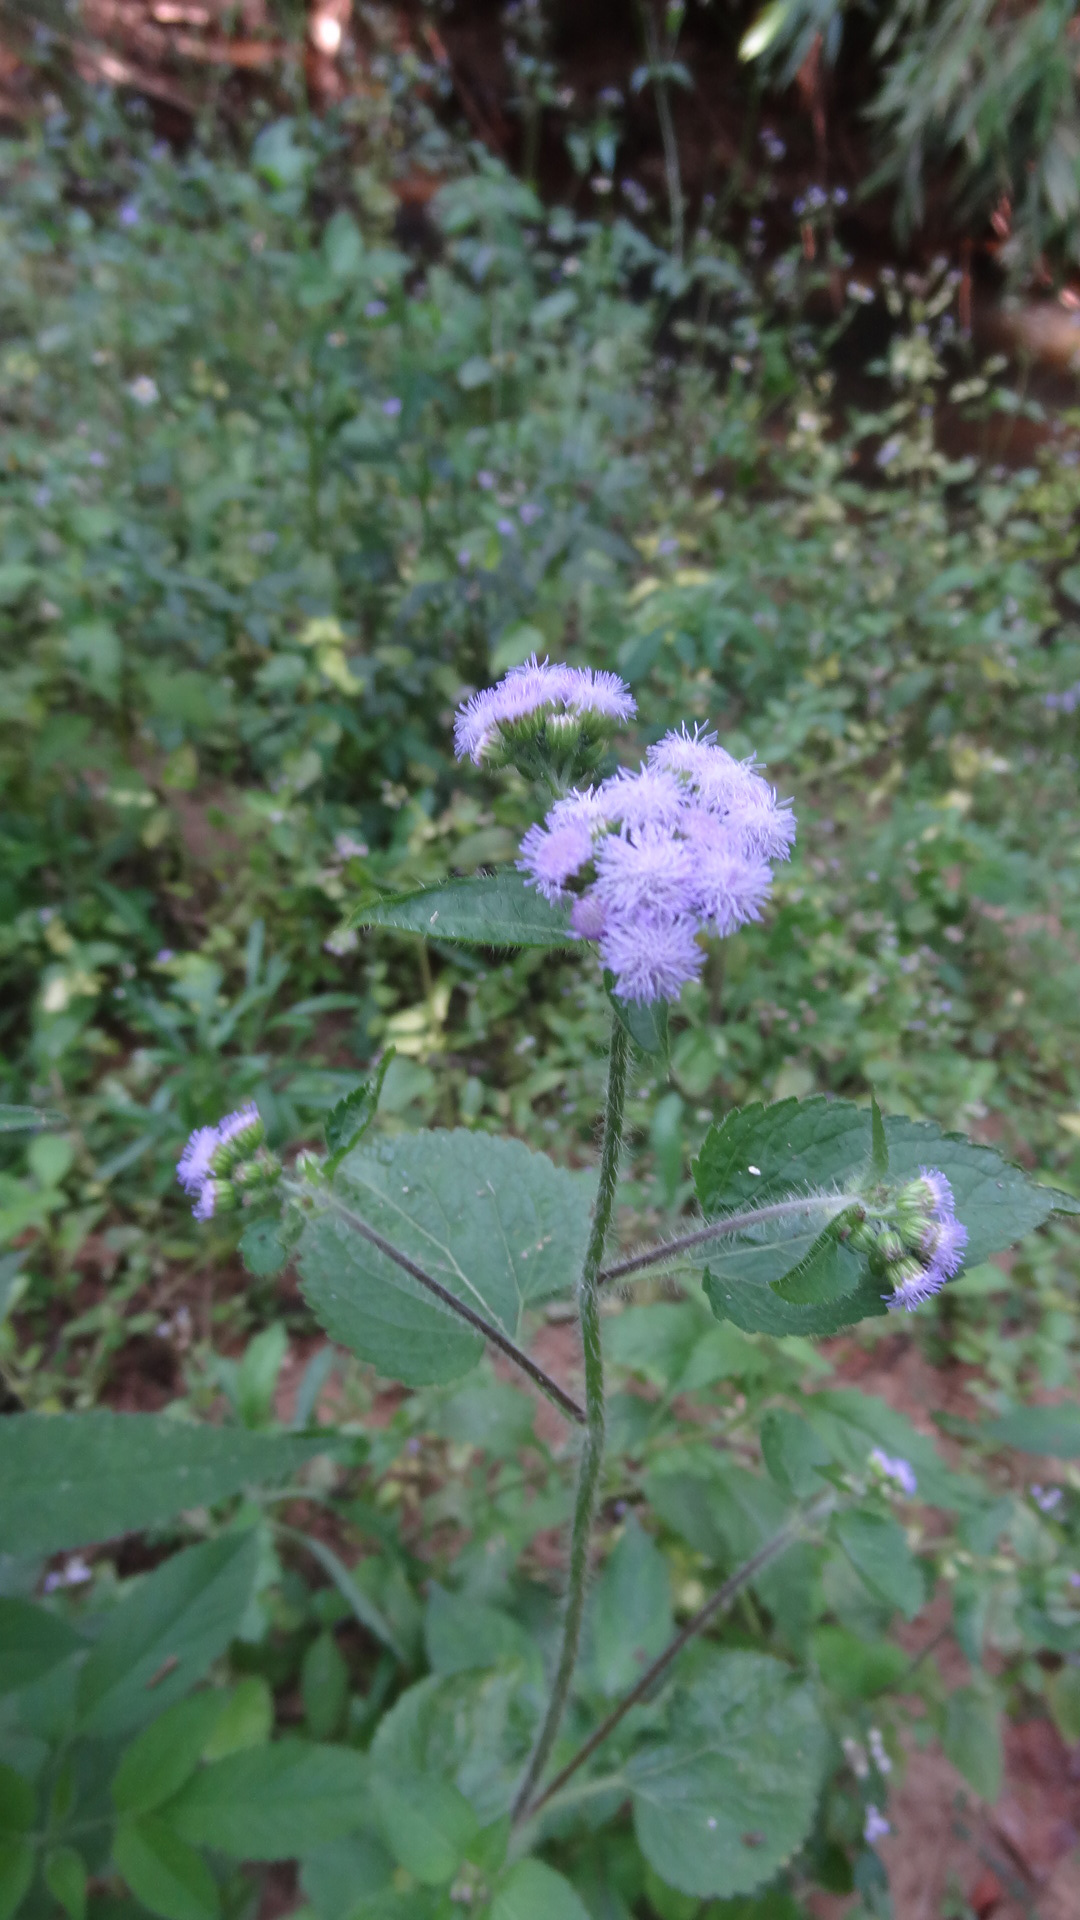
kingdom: Plantae
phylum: Tracheophyta
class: Magnoliopsida
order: Asterales
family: Asteraceae
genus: Ageratum
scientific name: Ageratum conyzoides
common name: Tropical whiteweed
